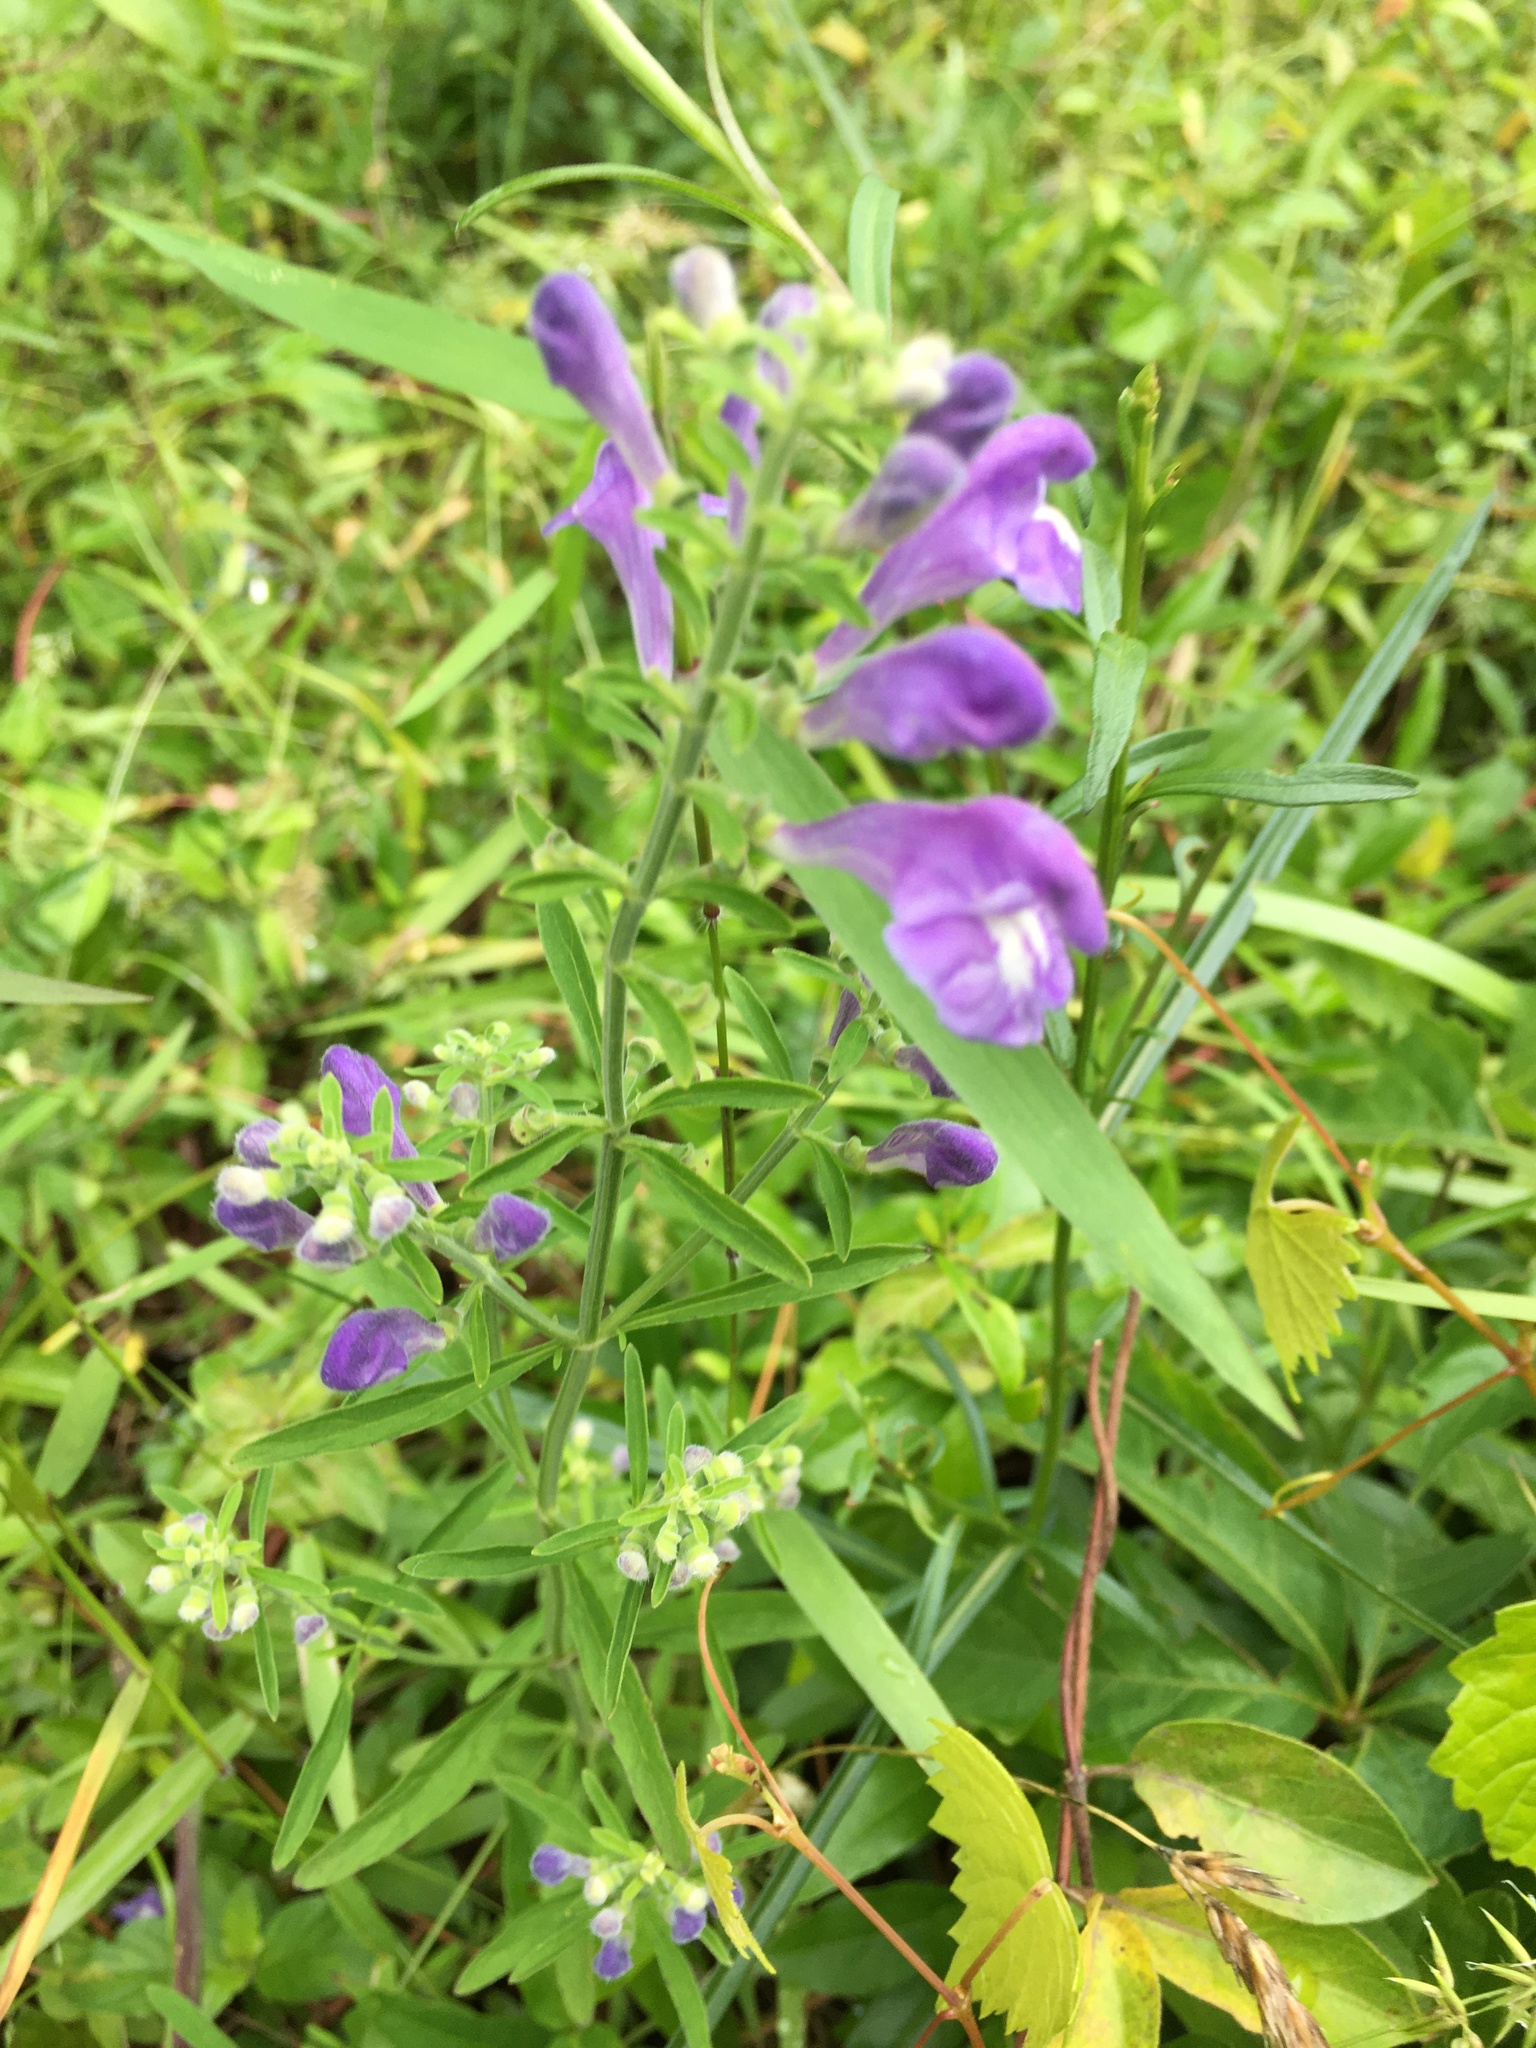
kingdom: Plantae
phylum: Tracheophyta
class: Magnoliopsida
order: Lamiales
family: Lamiaceae
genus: Scutellaria
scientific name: Scutellaria integrifolia
